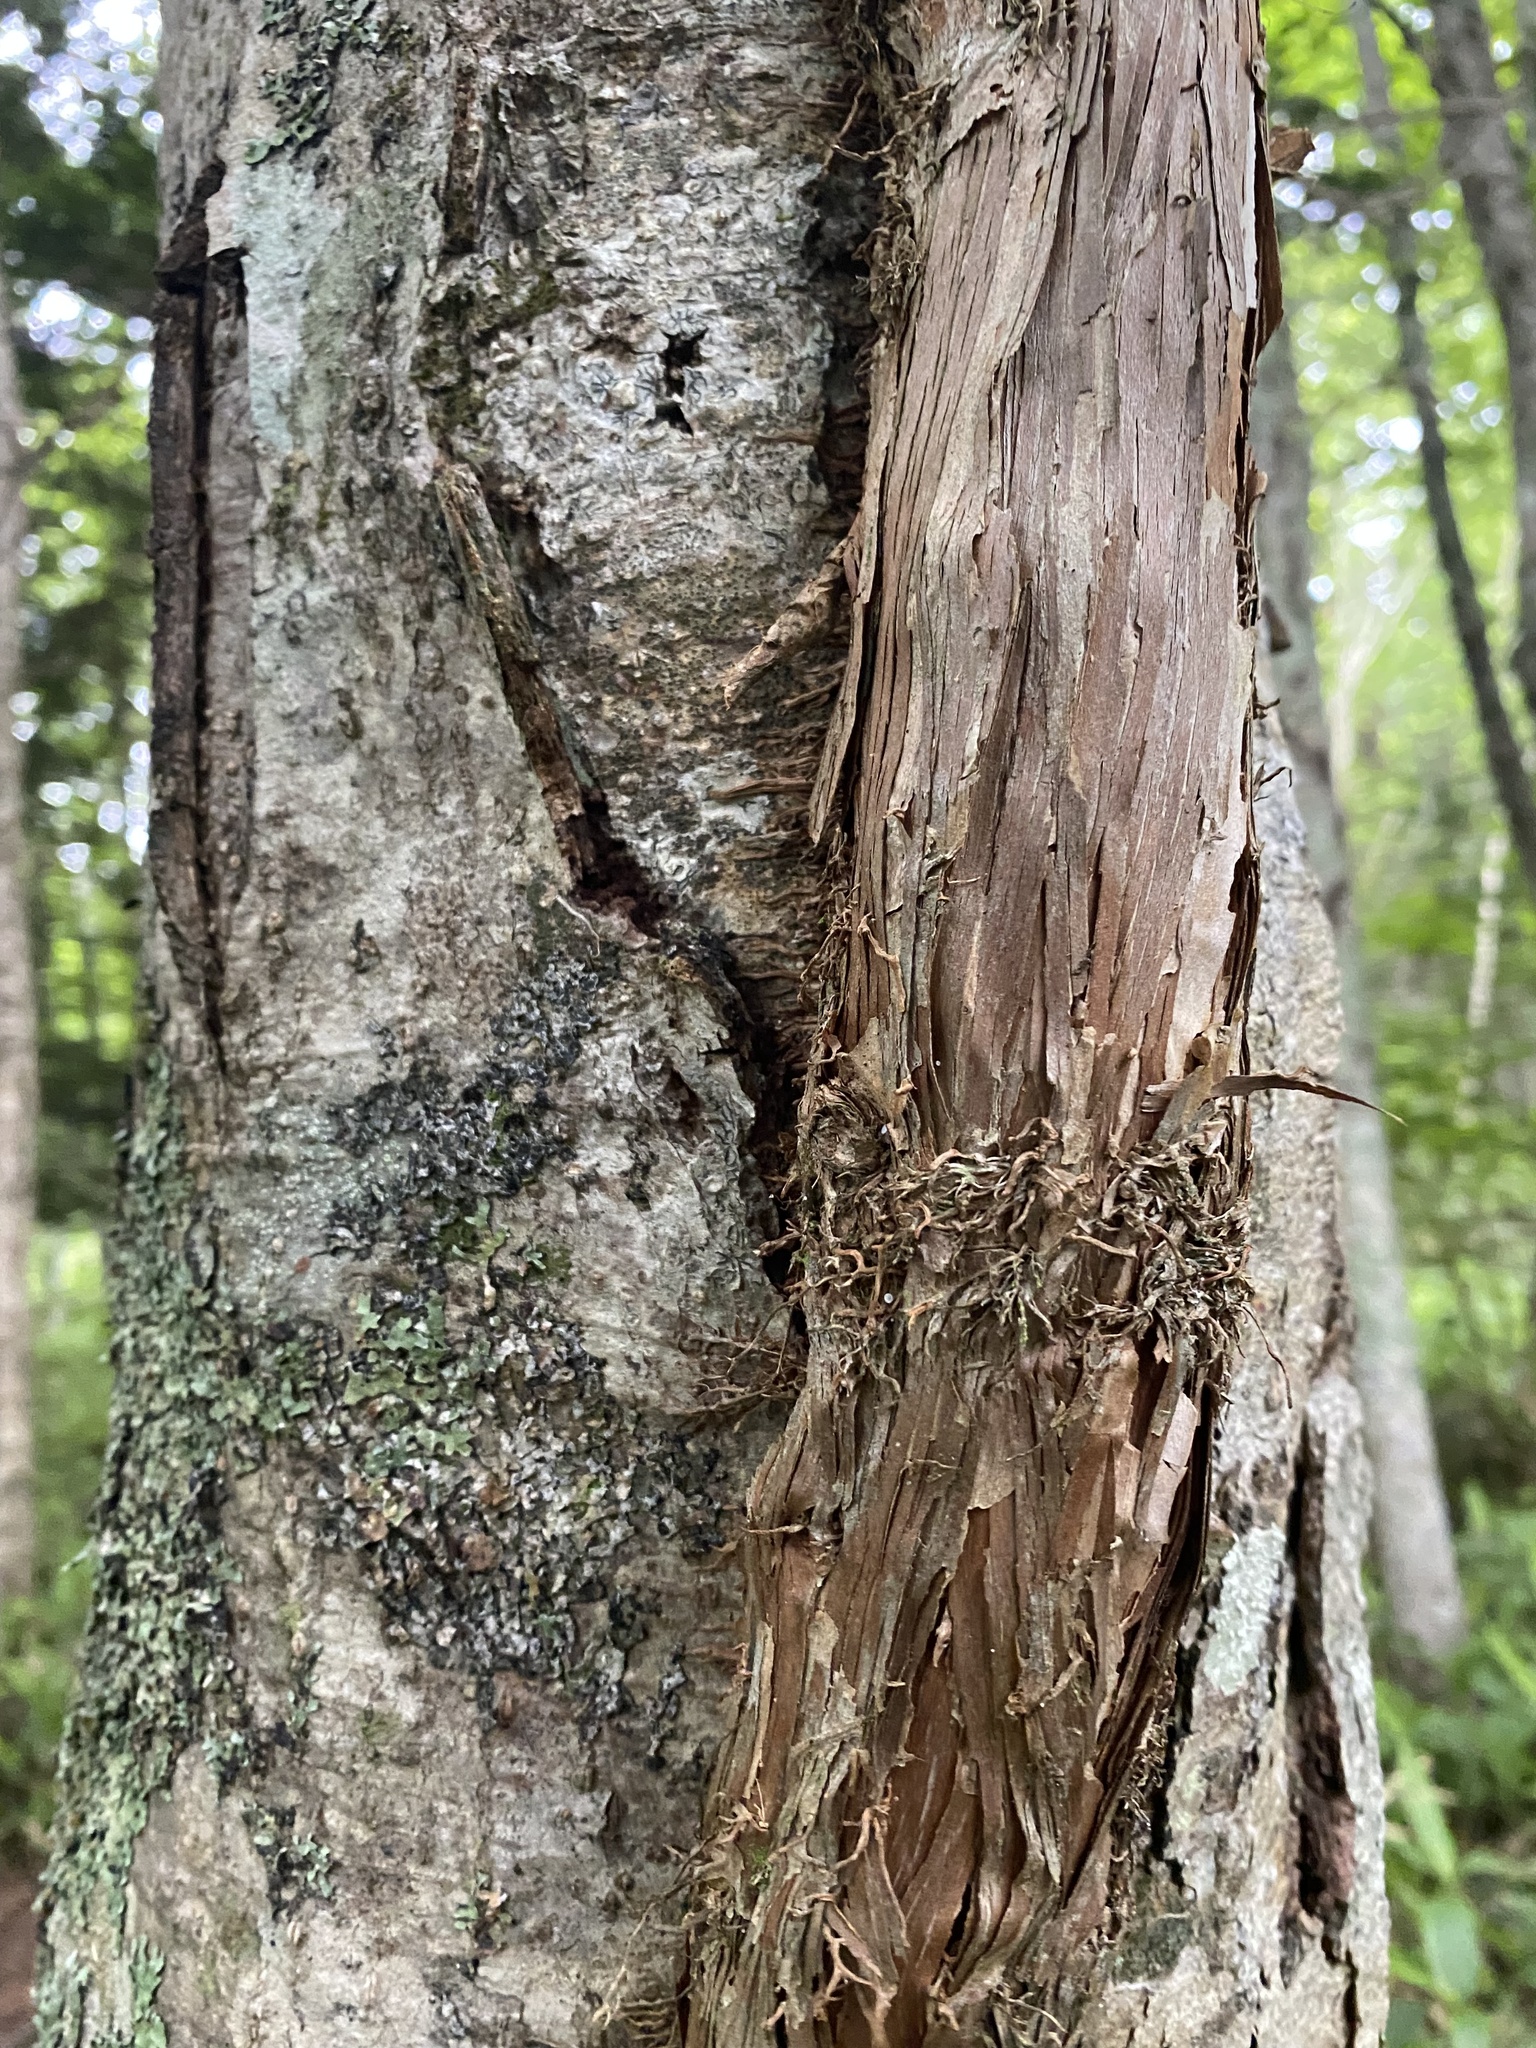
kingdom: Plantae
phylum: Tracheophyta
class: Magnoliopsida
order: Cornales
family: Hydrangeaceae
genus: Hydrangea
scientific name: Hydrangea petiolaris
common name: Japanese climbing hydrangea
